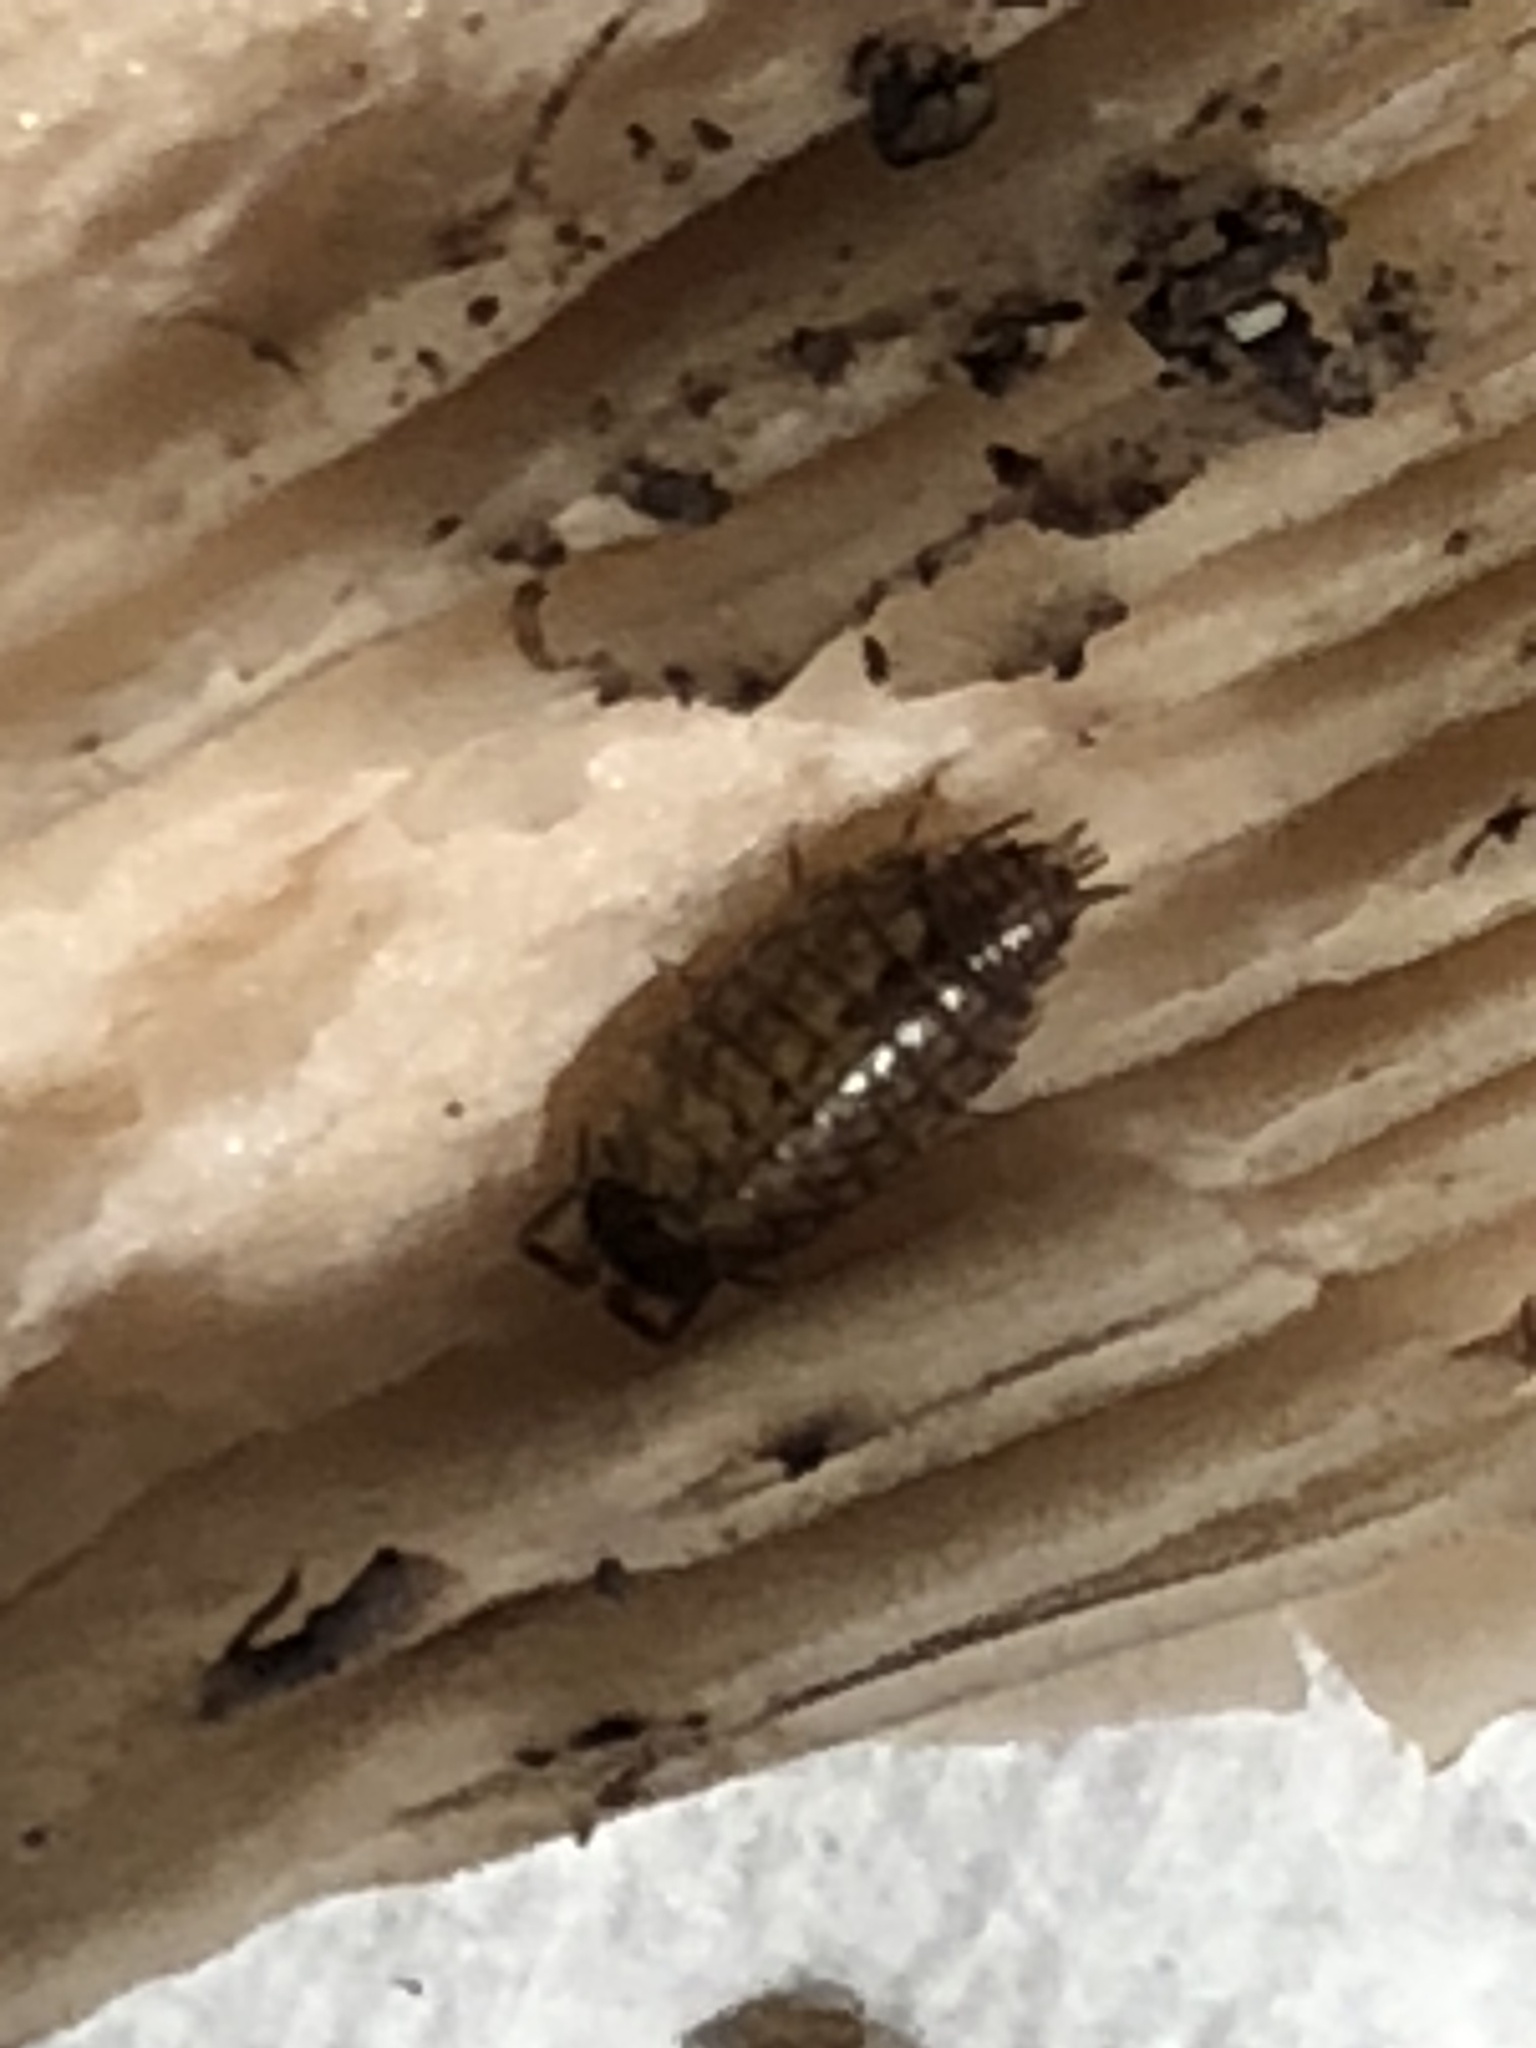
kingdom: Animalia
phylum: Arthropoda
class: Malacostraca
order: Isopoda
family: Philosciidae
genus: Philoscia
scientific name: Philoscia muscorum
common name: Common striped woodlouse
